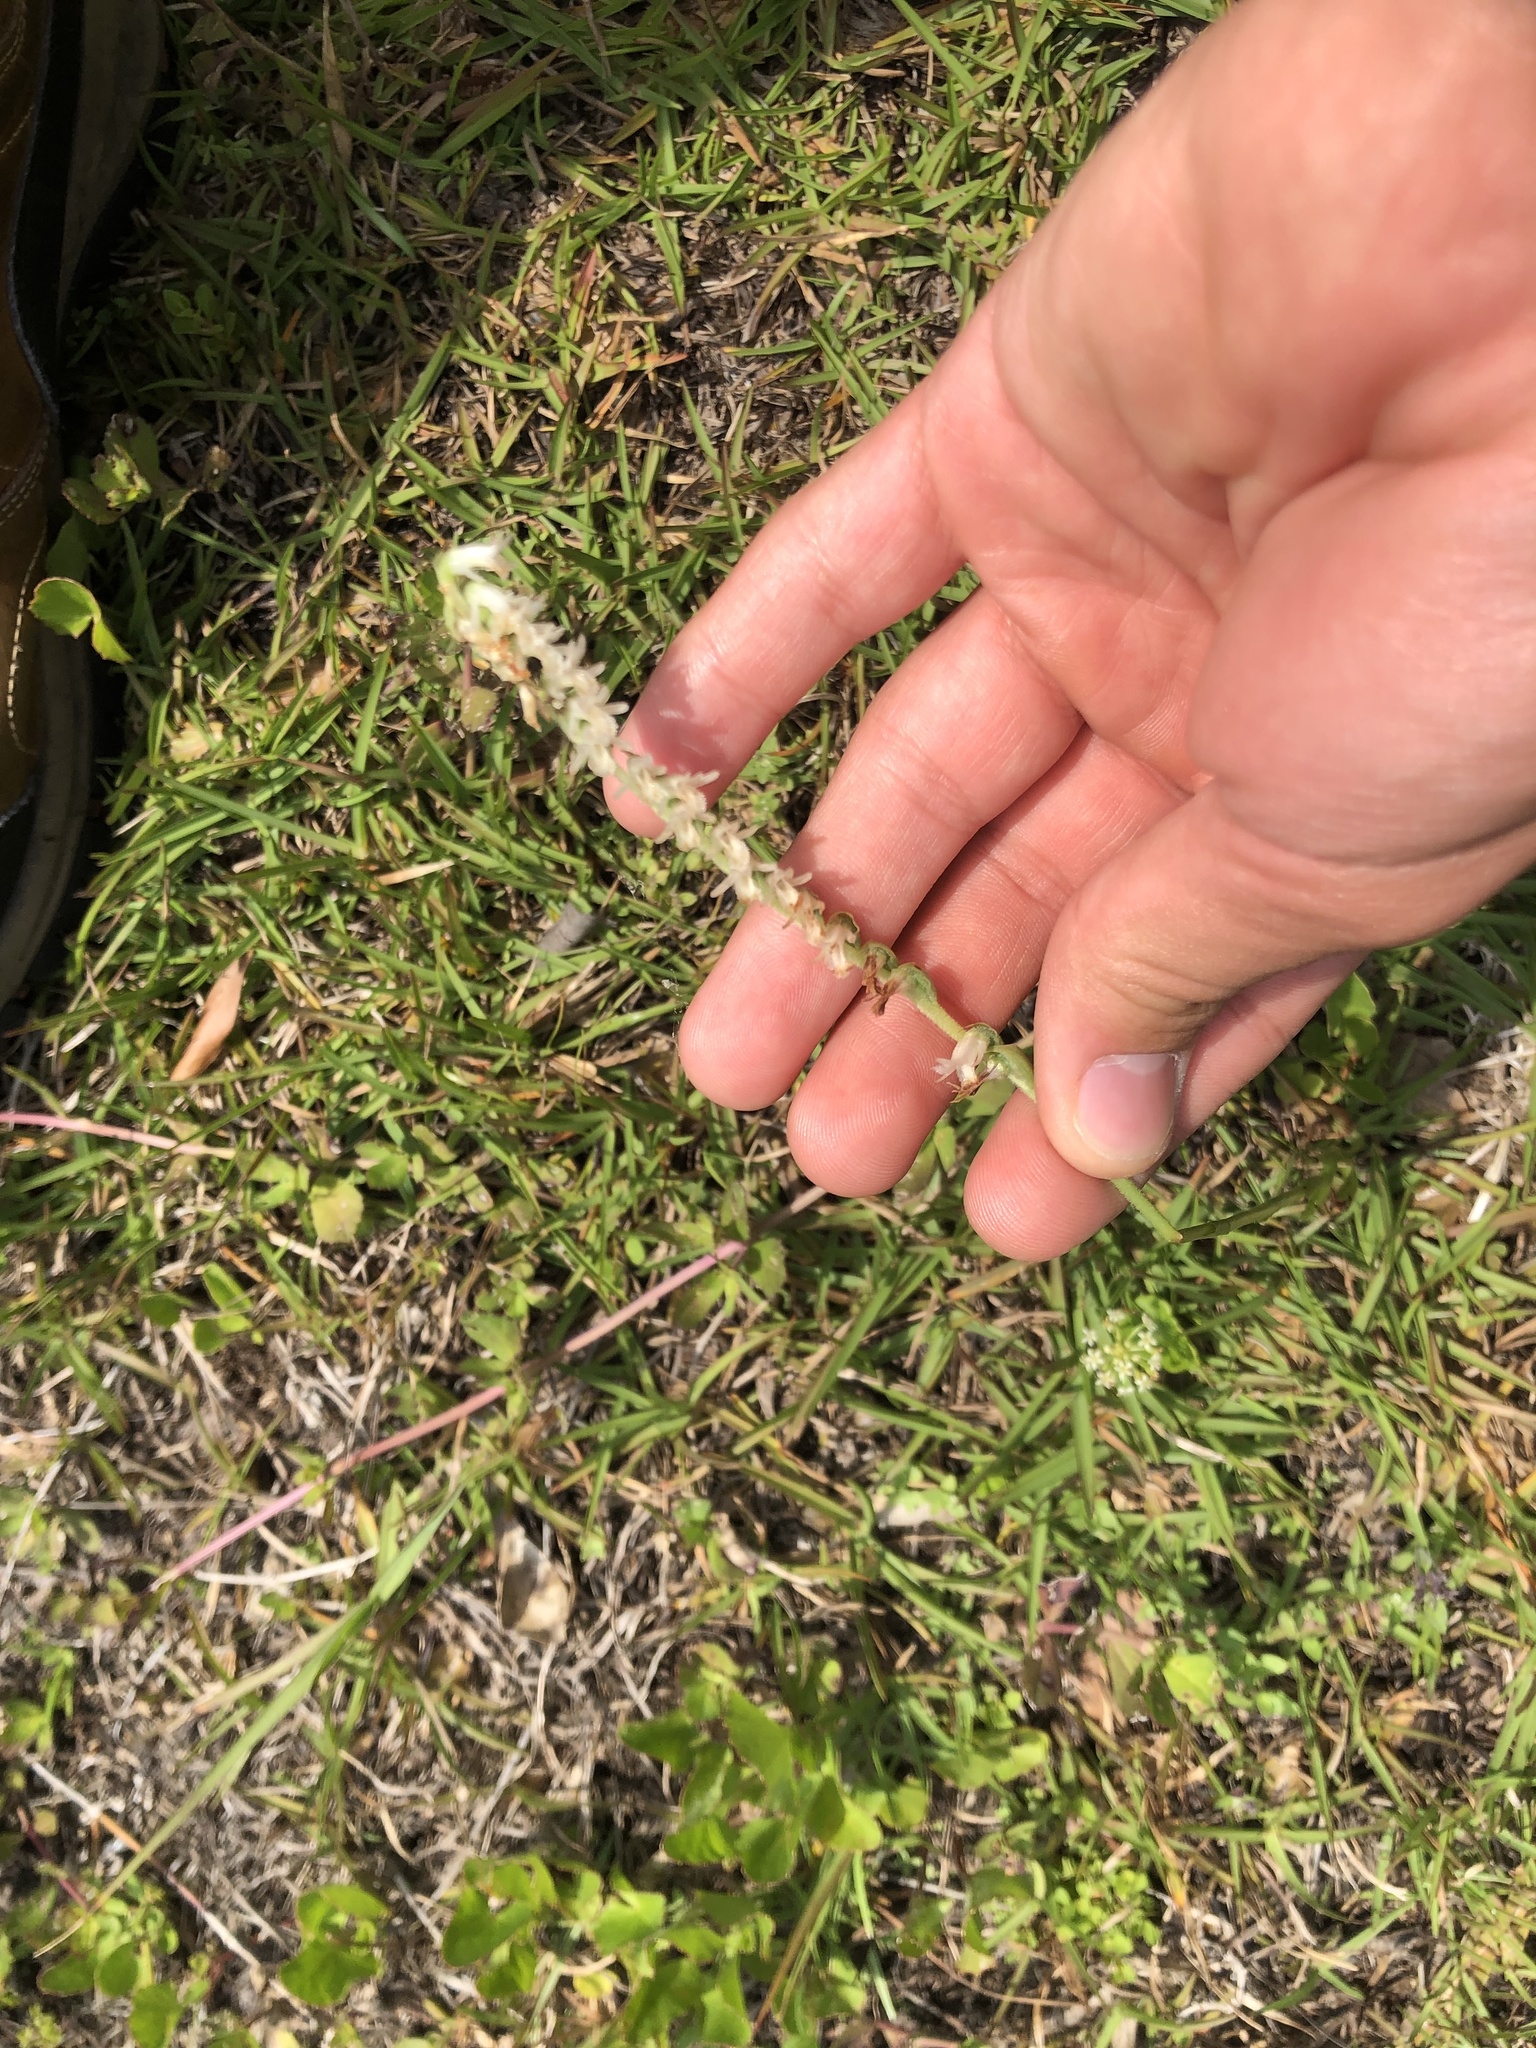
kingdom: Plantae
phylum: Tracheophyta
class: Liliopsida
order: Asparagales
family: Orchidaceae
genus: Spiranthes
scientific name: Spiranthes vernalis
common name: Spring ladies'-tresses
